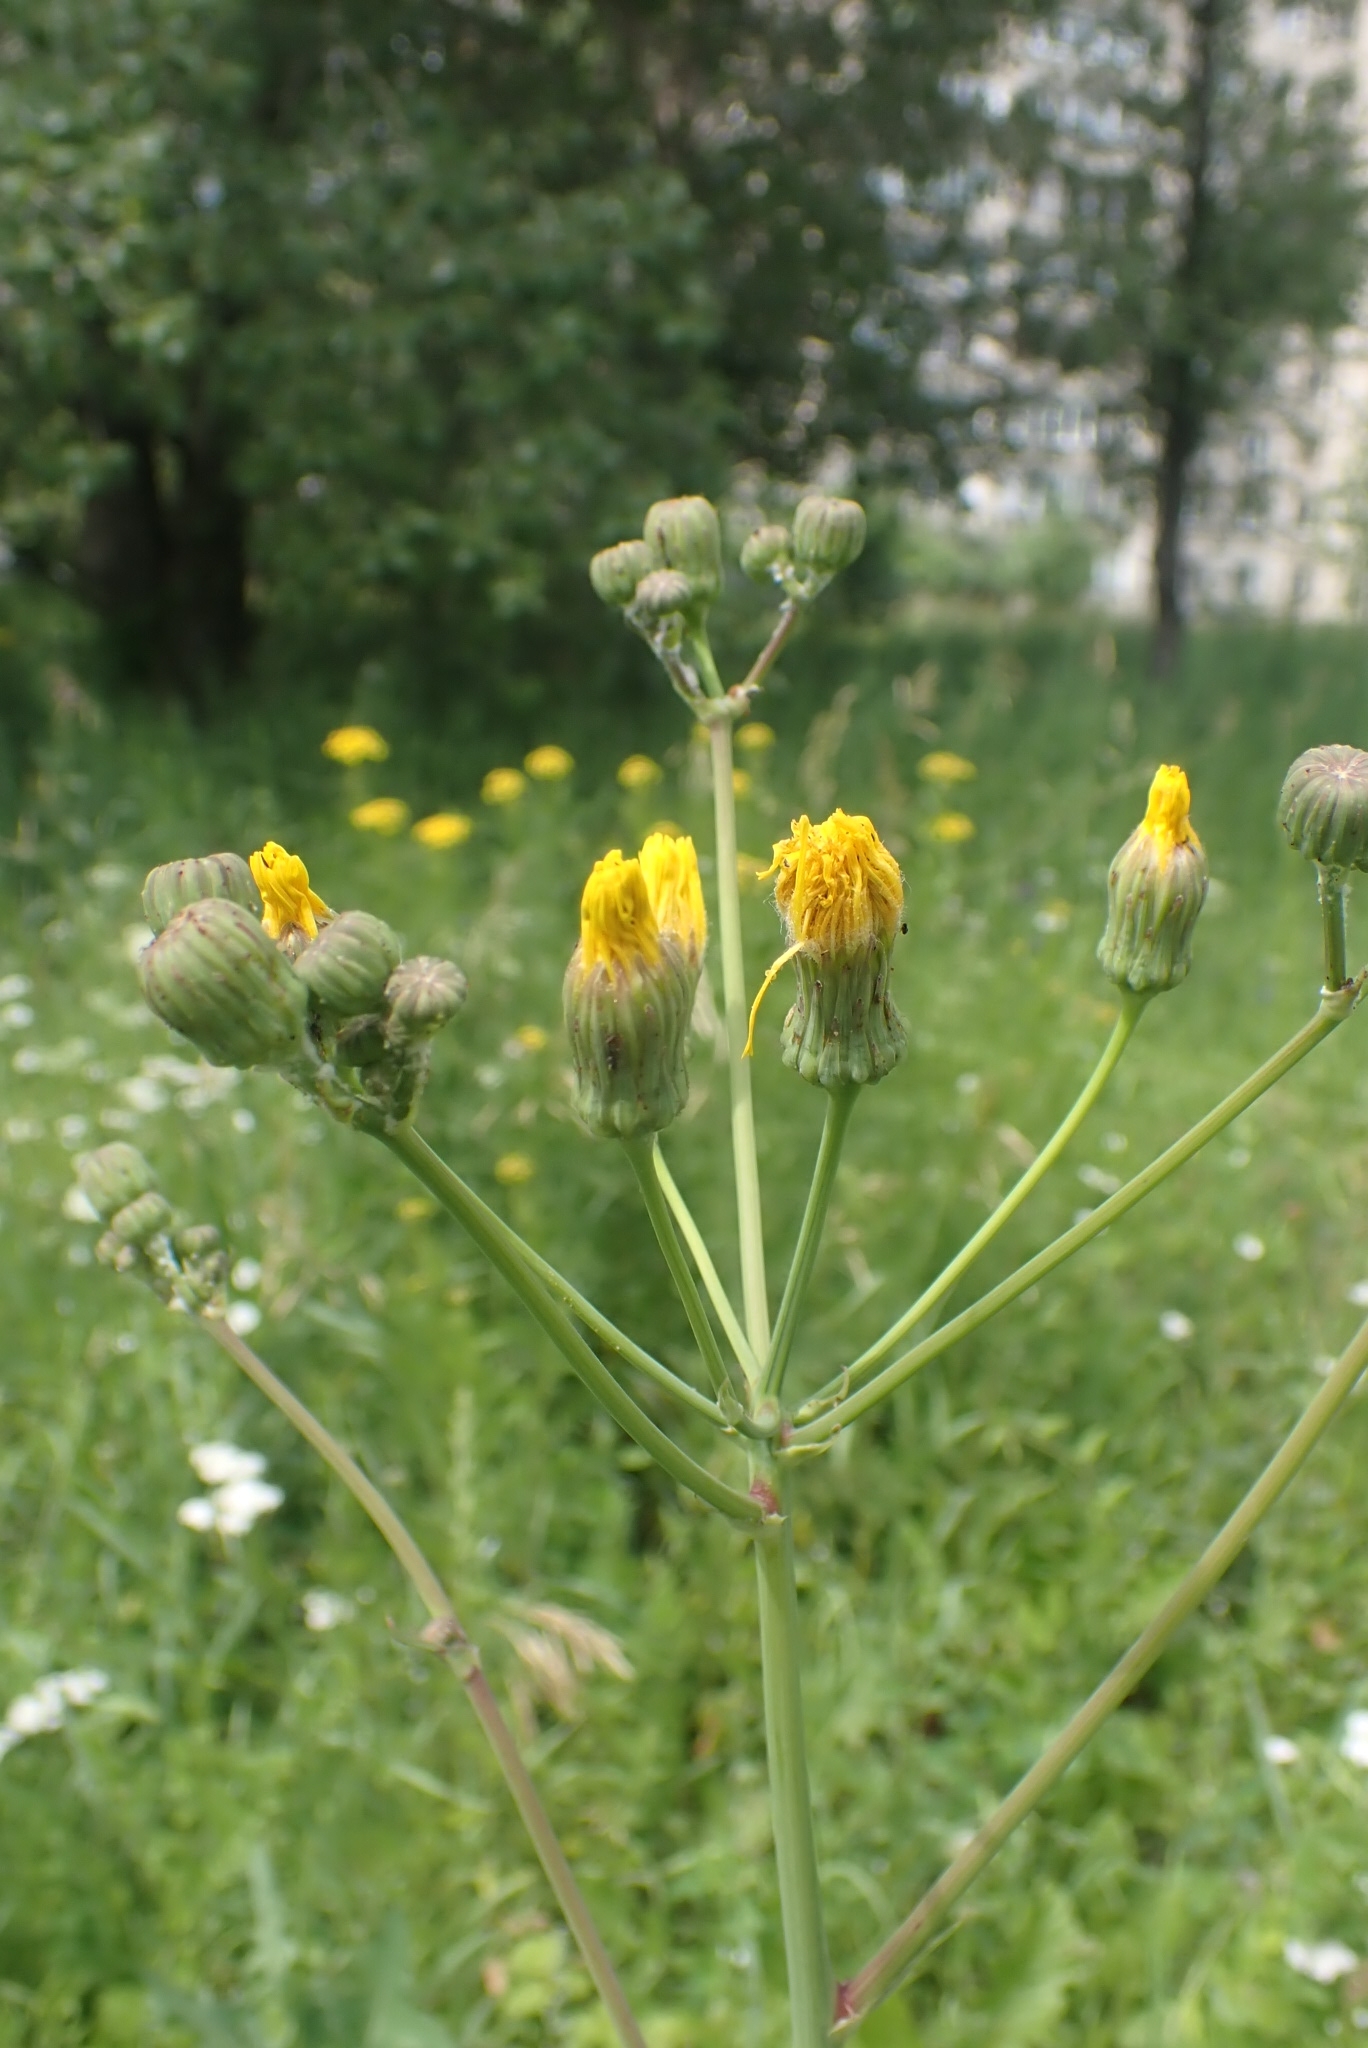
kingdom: Plantae
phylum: Tracheophyta
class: Magnoliopsida
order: Asterales
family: Asteraceae
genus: Sonchus
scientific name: Sonchus arvensis
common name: Perennial sow-thistle
